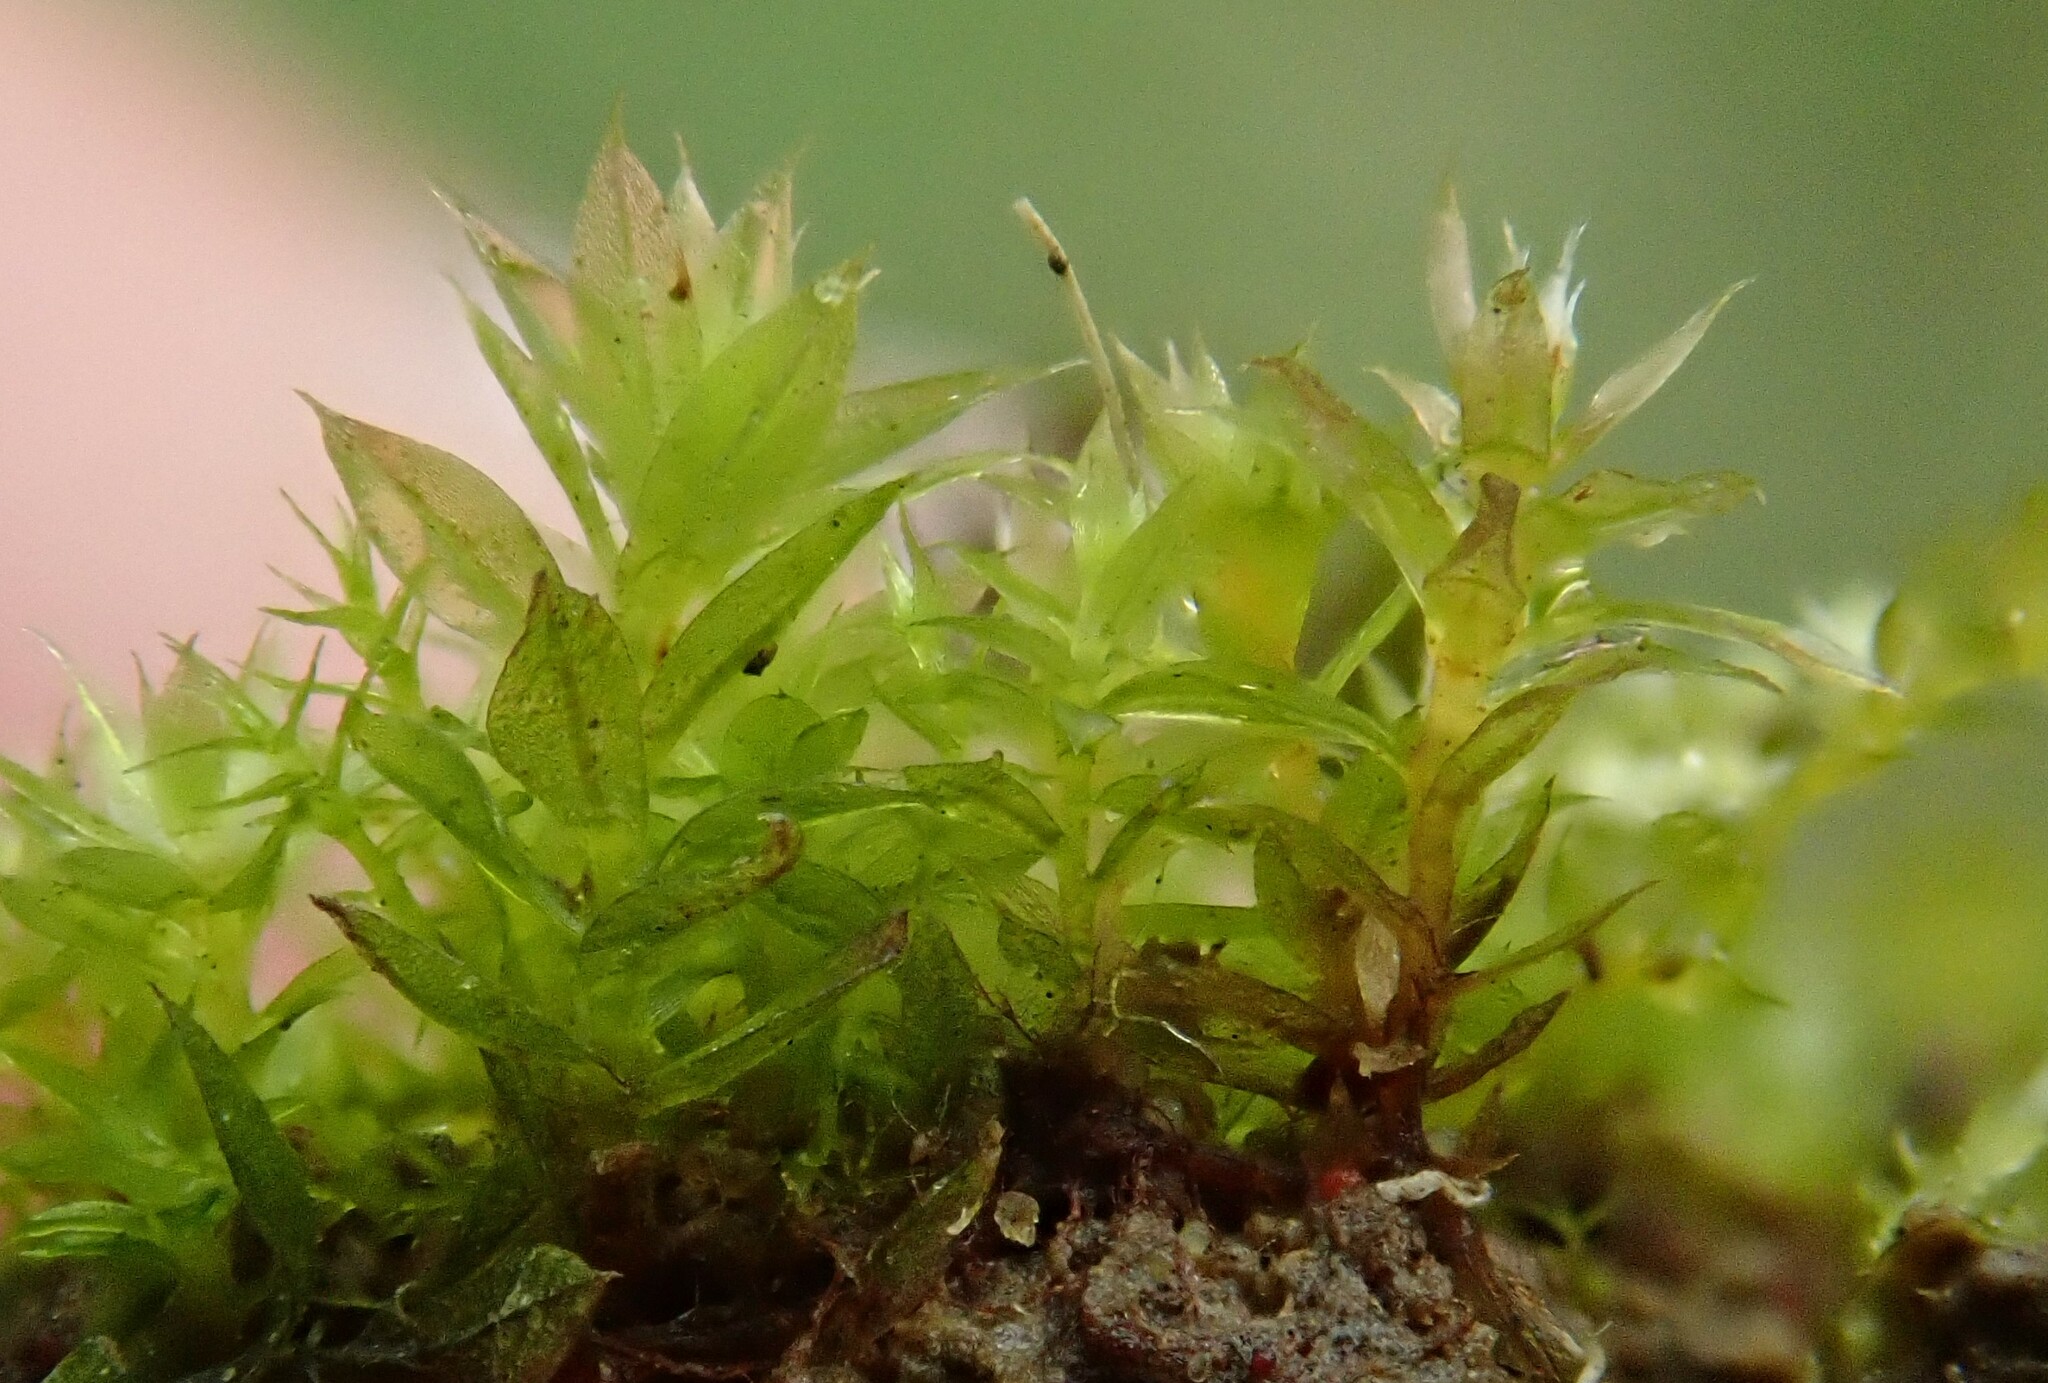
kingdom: Plantae
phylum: Bryophyta
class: Bryopsida
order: Bryales
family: Bryaceae
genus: Rosulabryum
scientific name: Rosulabryum rubens
